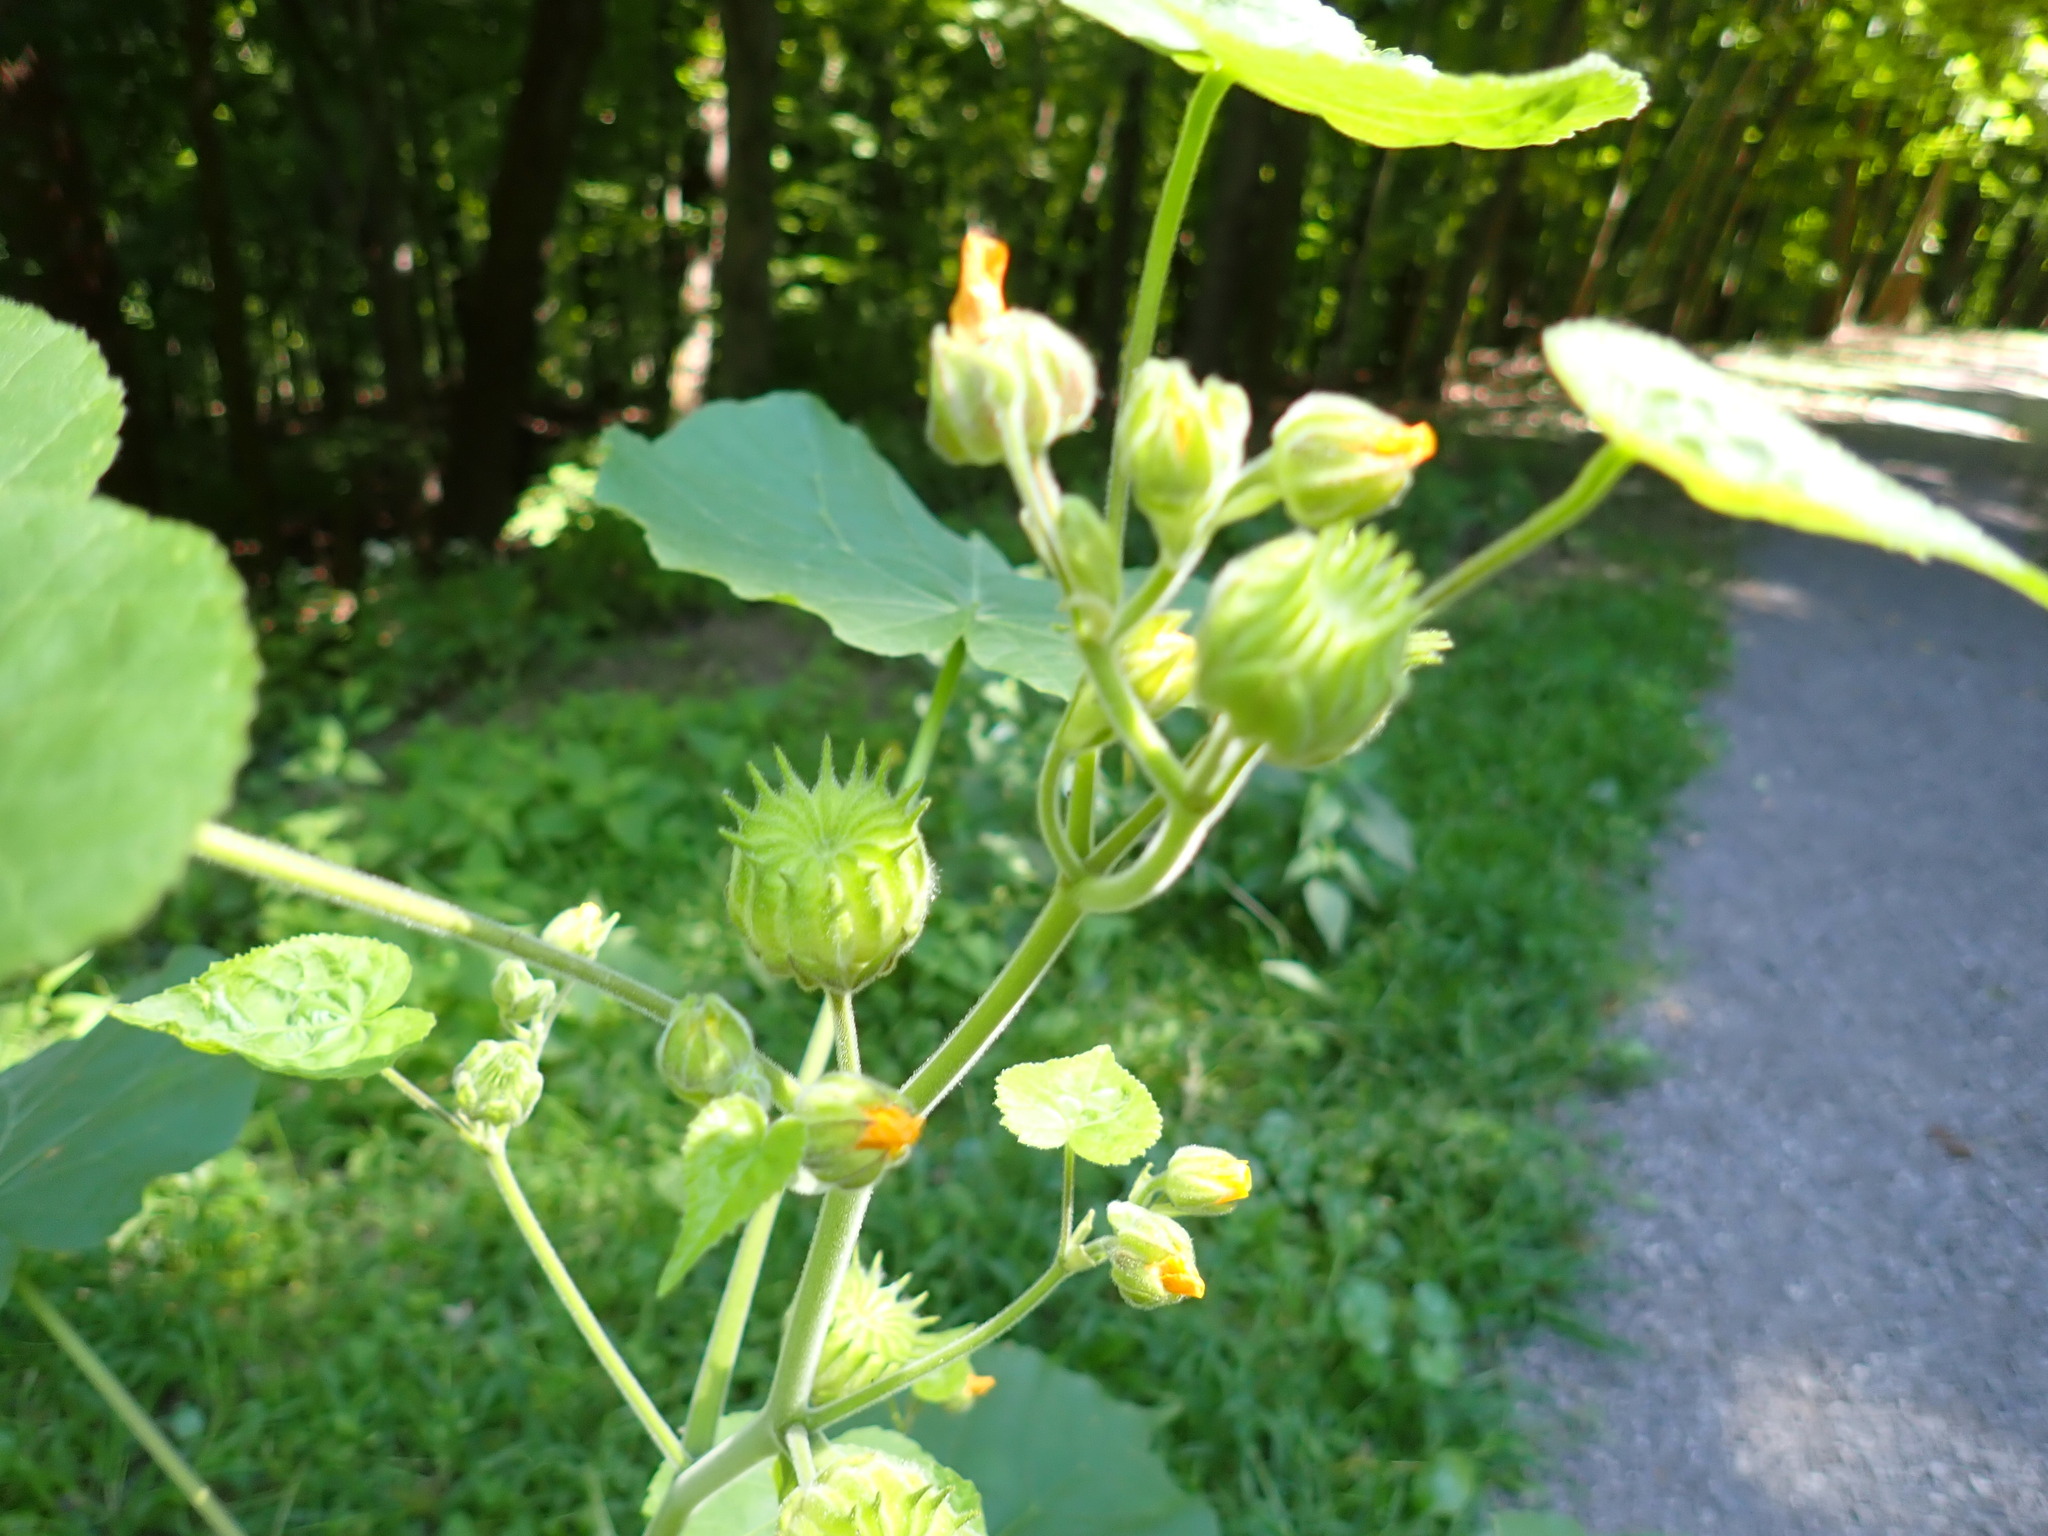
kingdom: Plantae
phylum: Tracheophyta
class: Magnoliopsida
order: Malvales
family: Malvaceae
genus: Abutilon
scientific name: Abutilon theophrasti
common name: Velvetleaf
